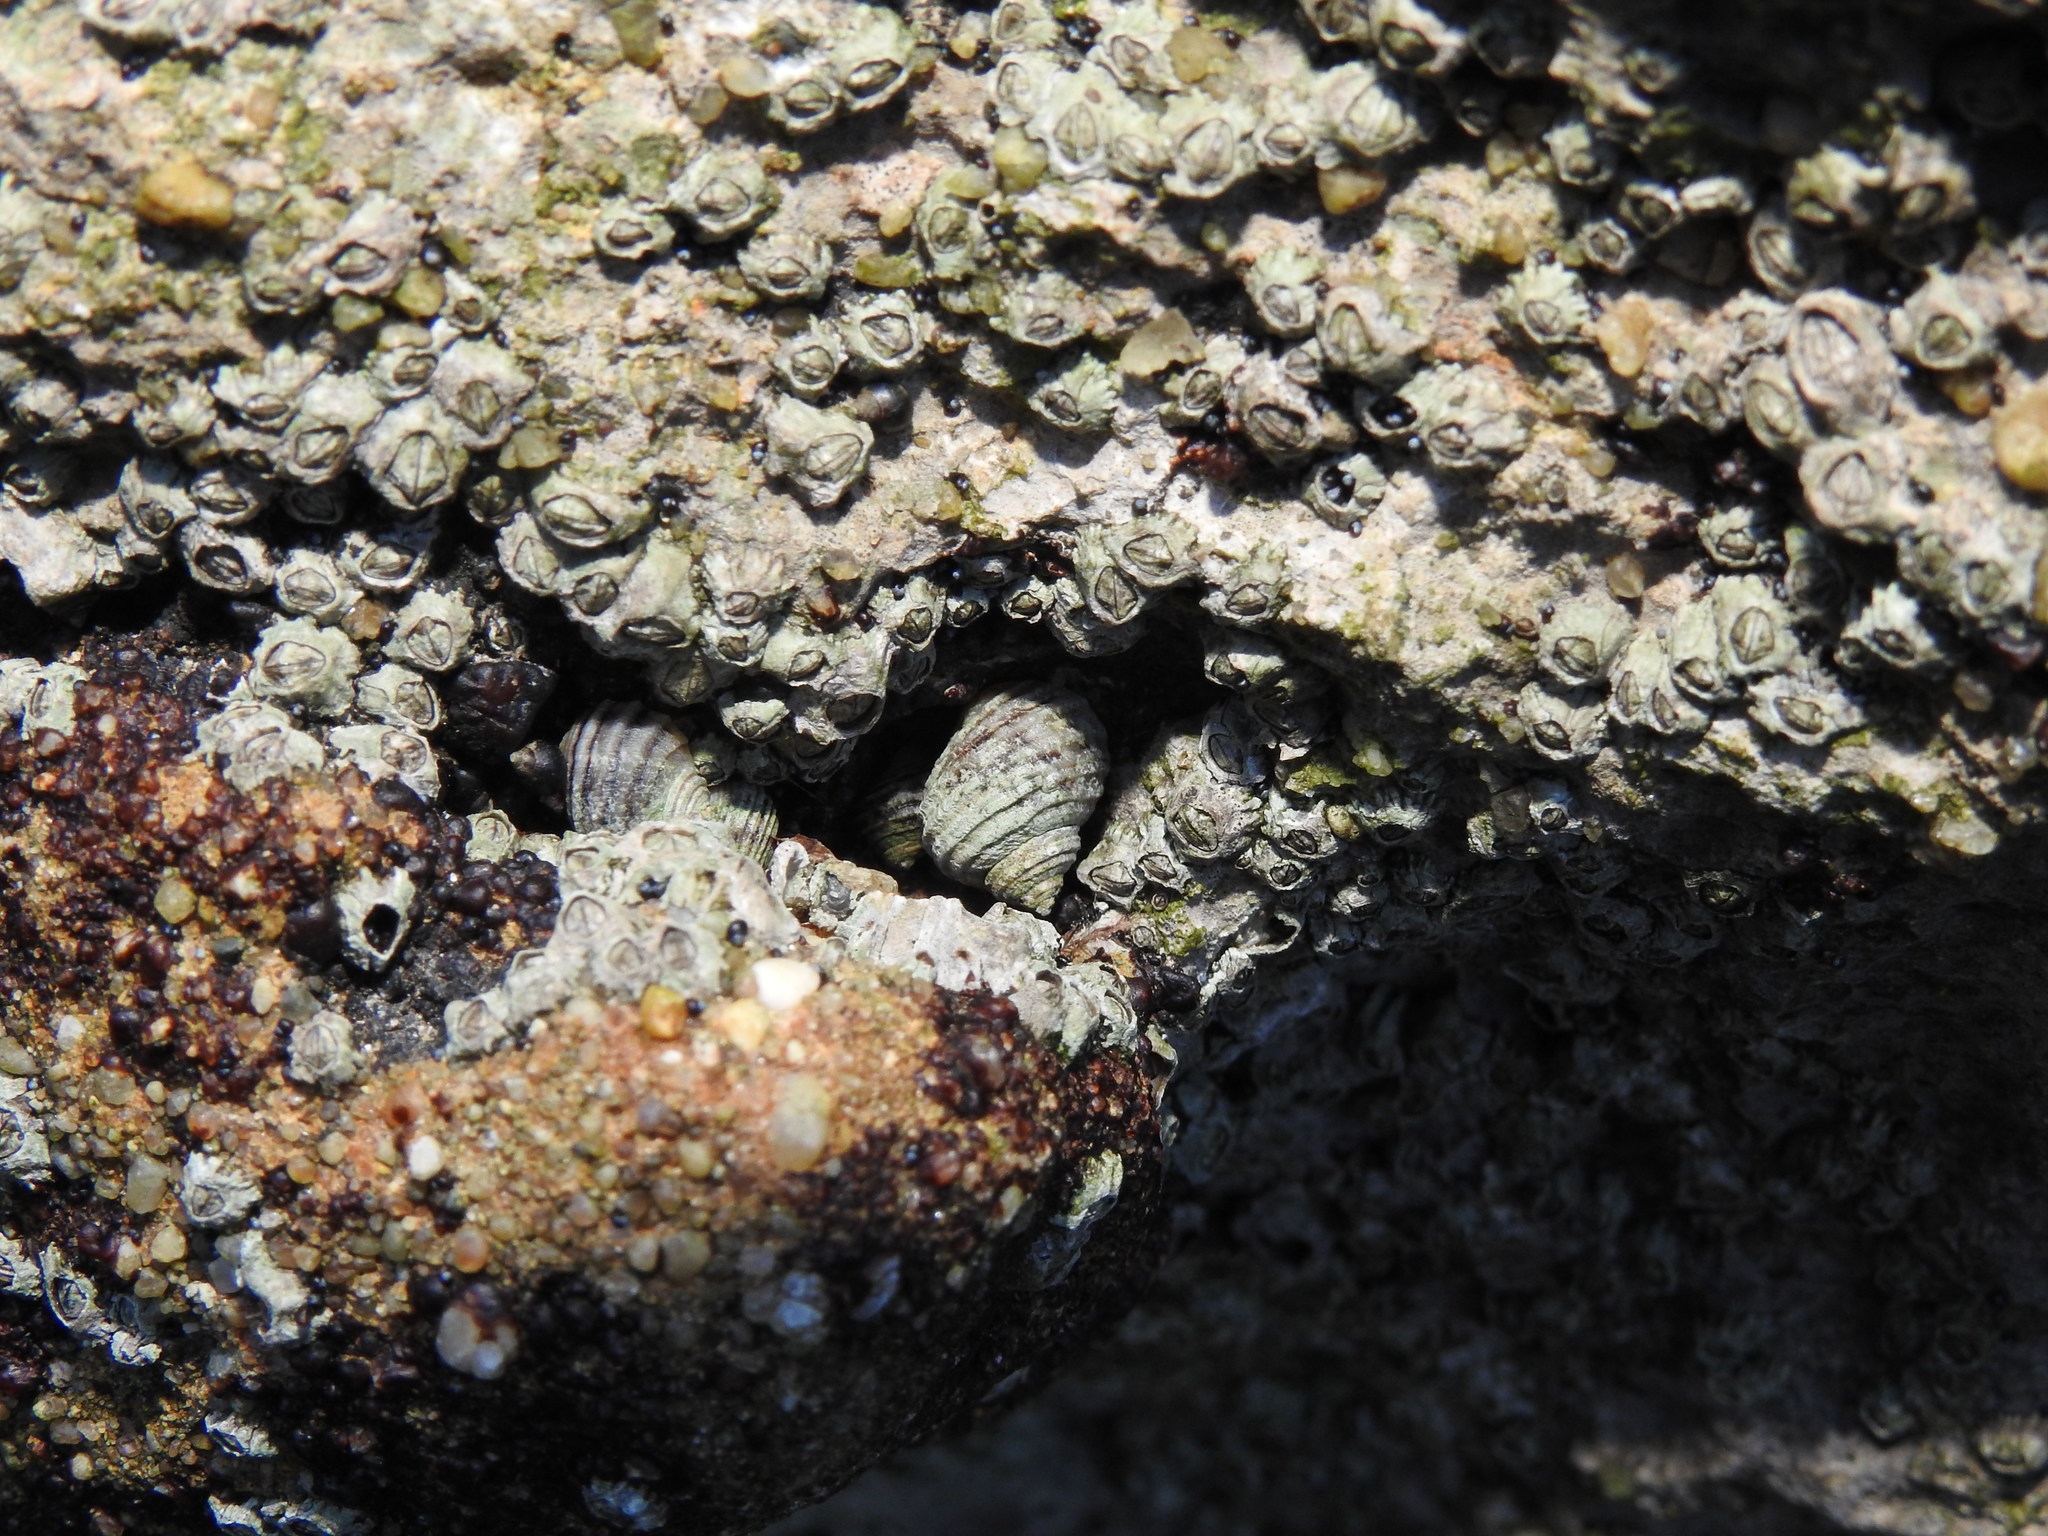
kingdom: Animalia
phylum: Mollusca
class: Gastropoda
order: Littorinimorpha
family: Littorinidae
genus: Littorina
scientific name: Littorina saxatilis
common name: Black-lined periwinkle
